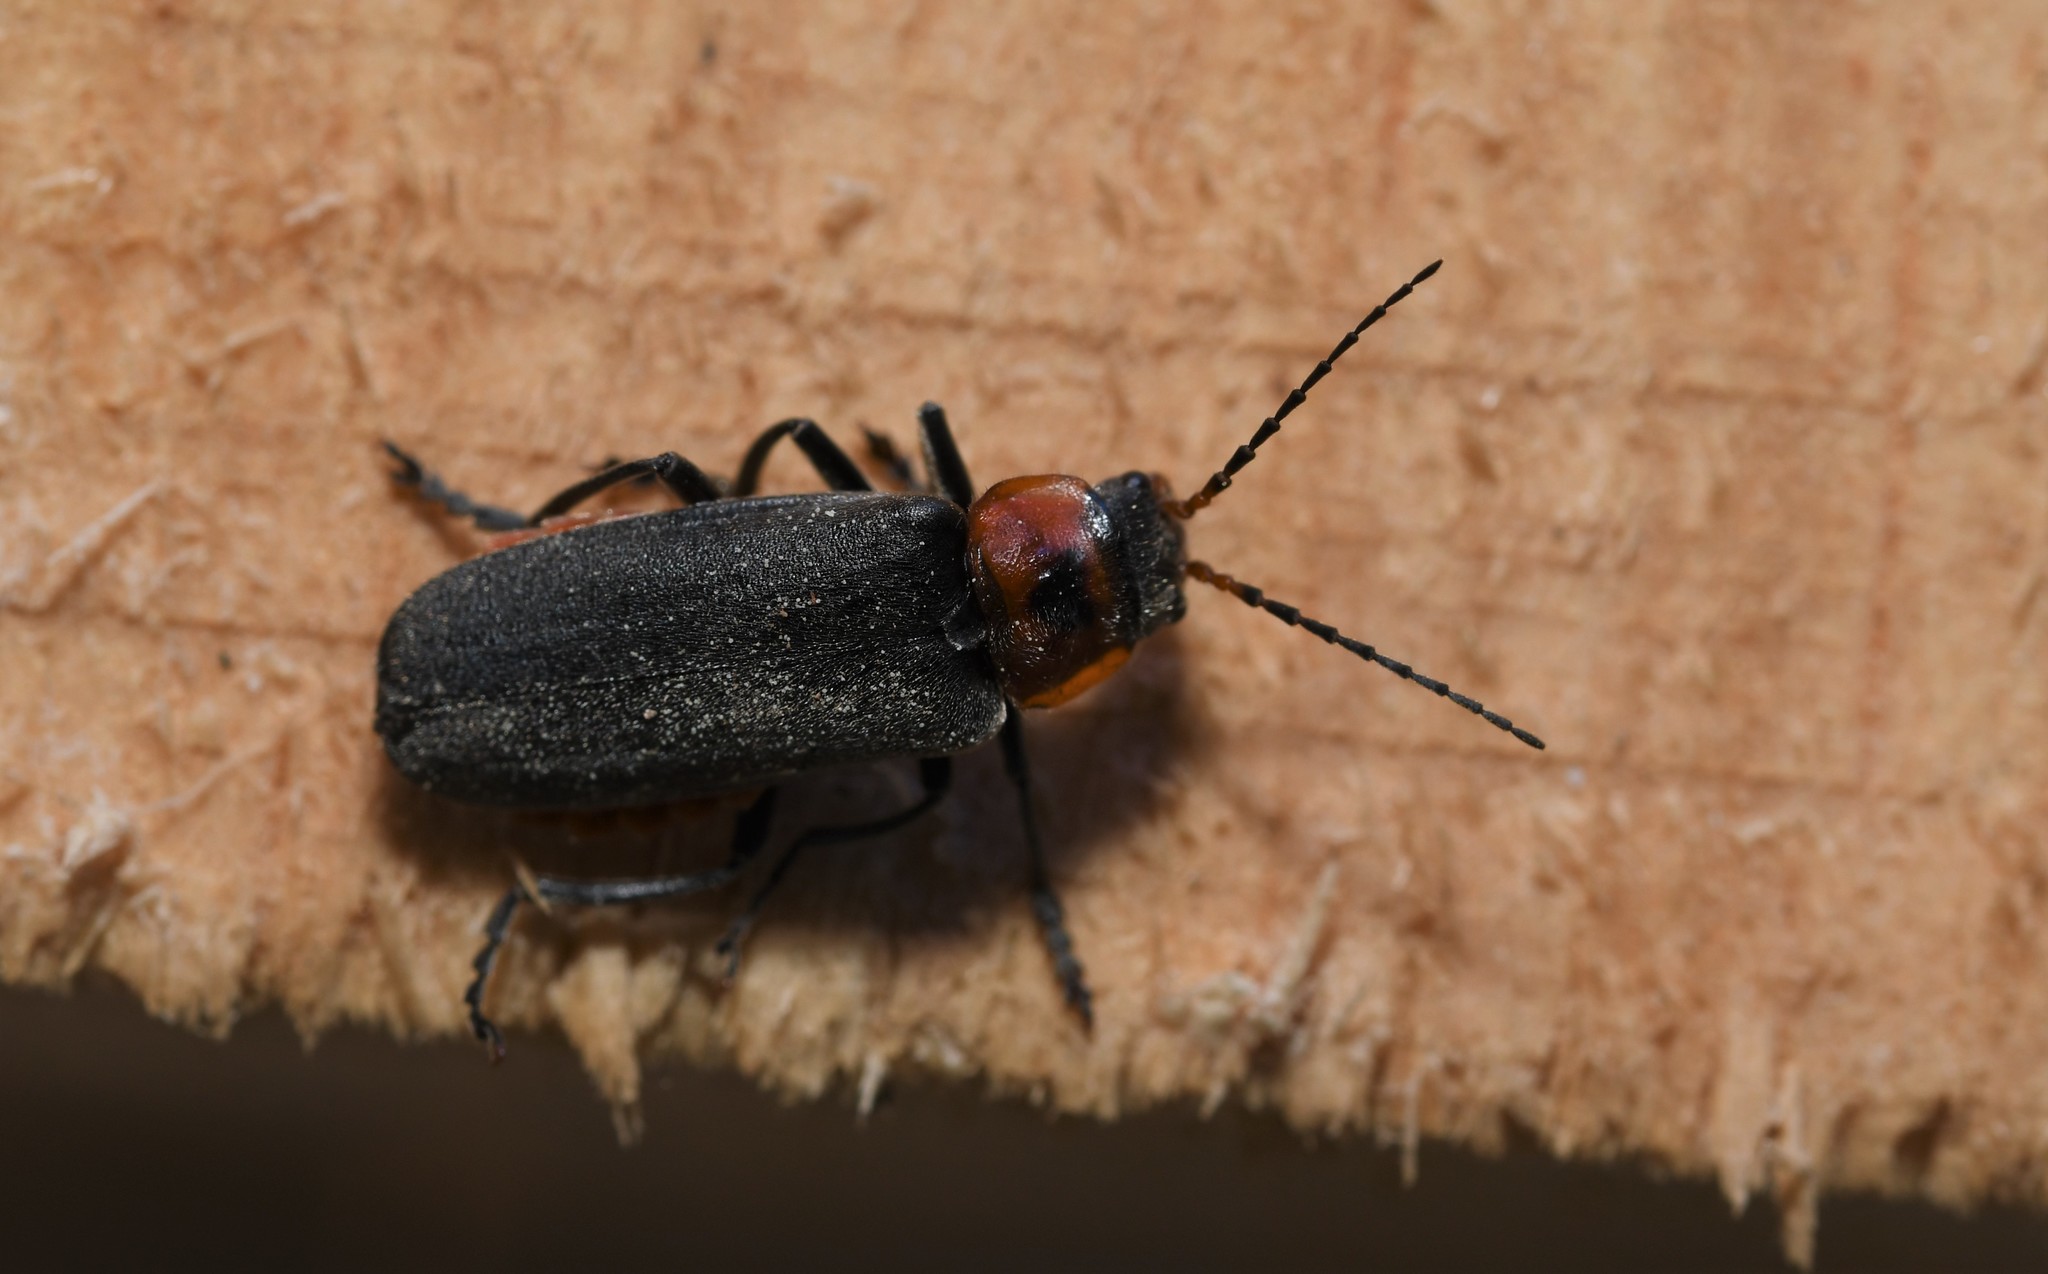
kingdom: Animalia
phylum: Arthropoda
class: Insecta
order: Coleoptera
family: Cantharidae
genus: Cantharis
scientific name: Cantharis reichei
